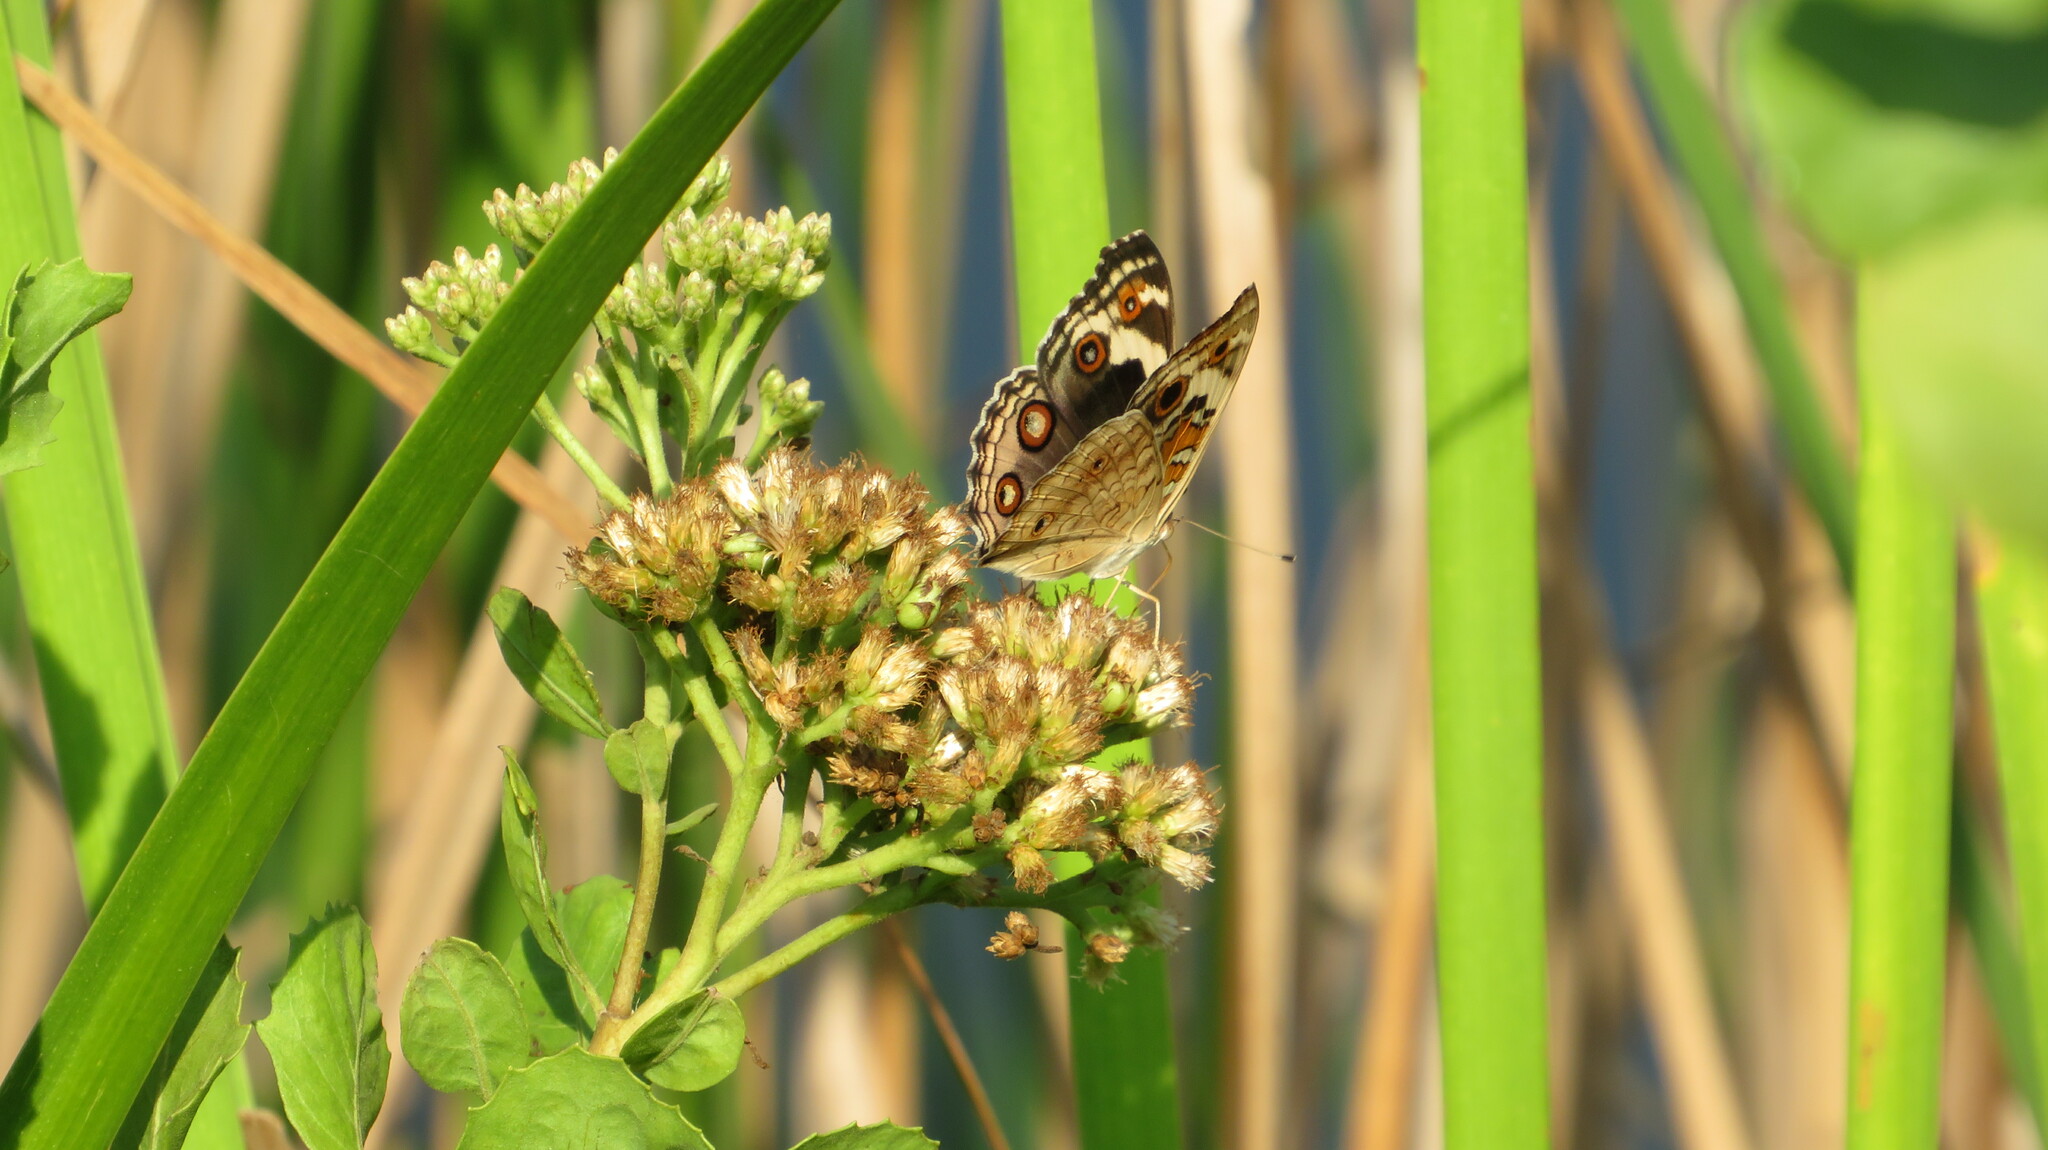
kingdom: Animalia
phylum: Arthropoda
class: Insecta
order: Lepidoptera
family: Nymphalidae
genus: Junonia
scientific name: Junonia orithya
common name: Blue pansy
